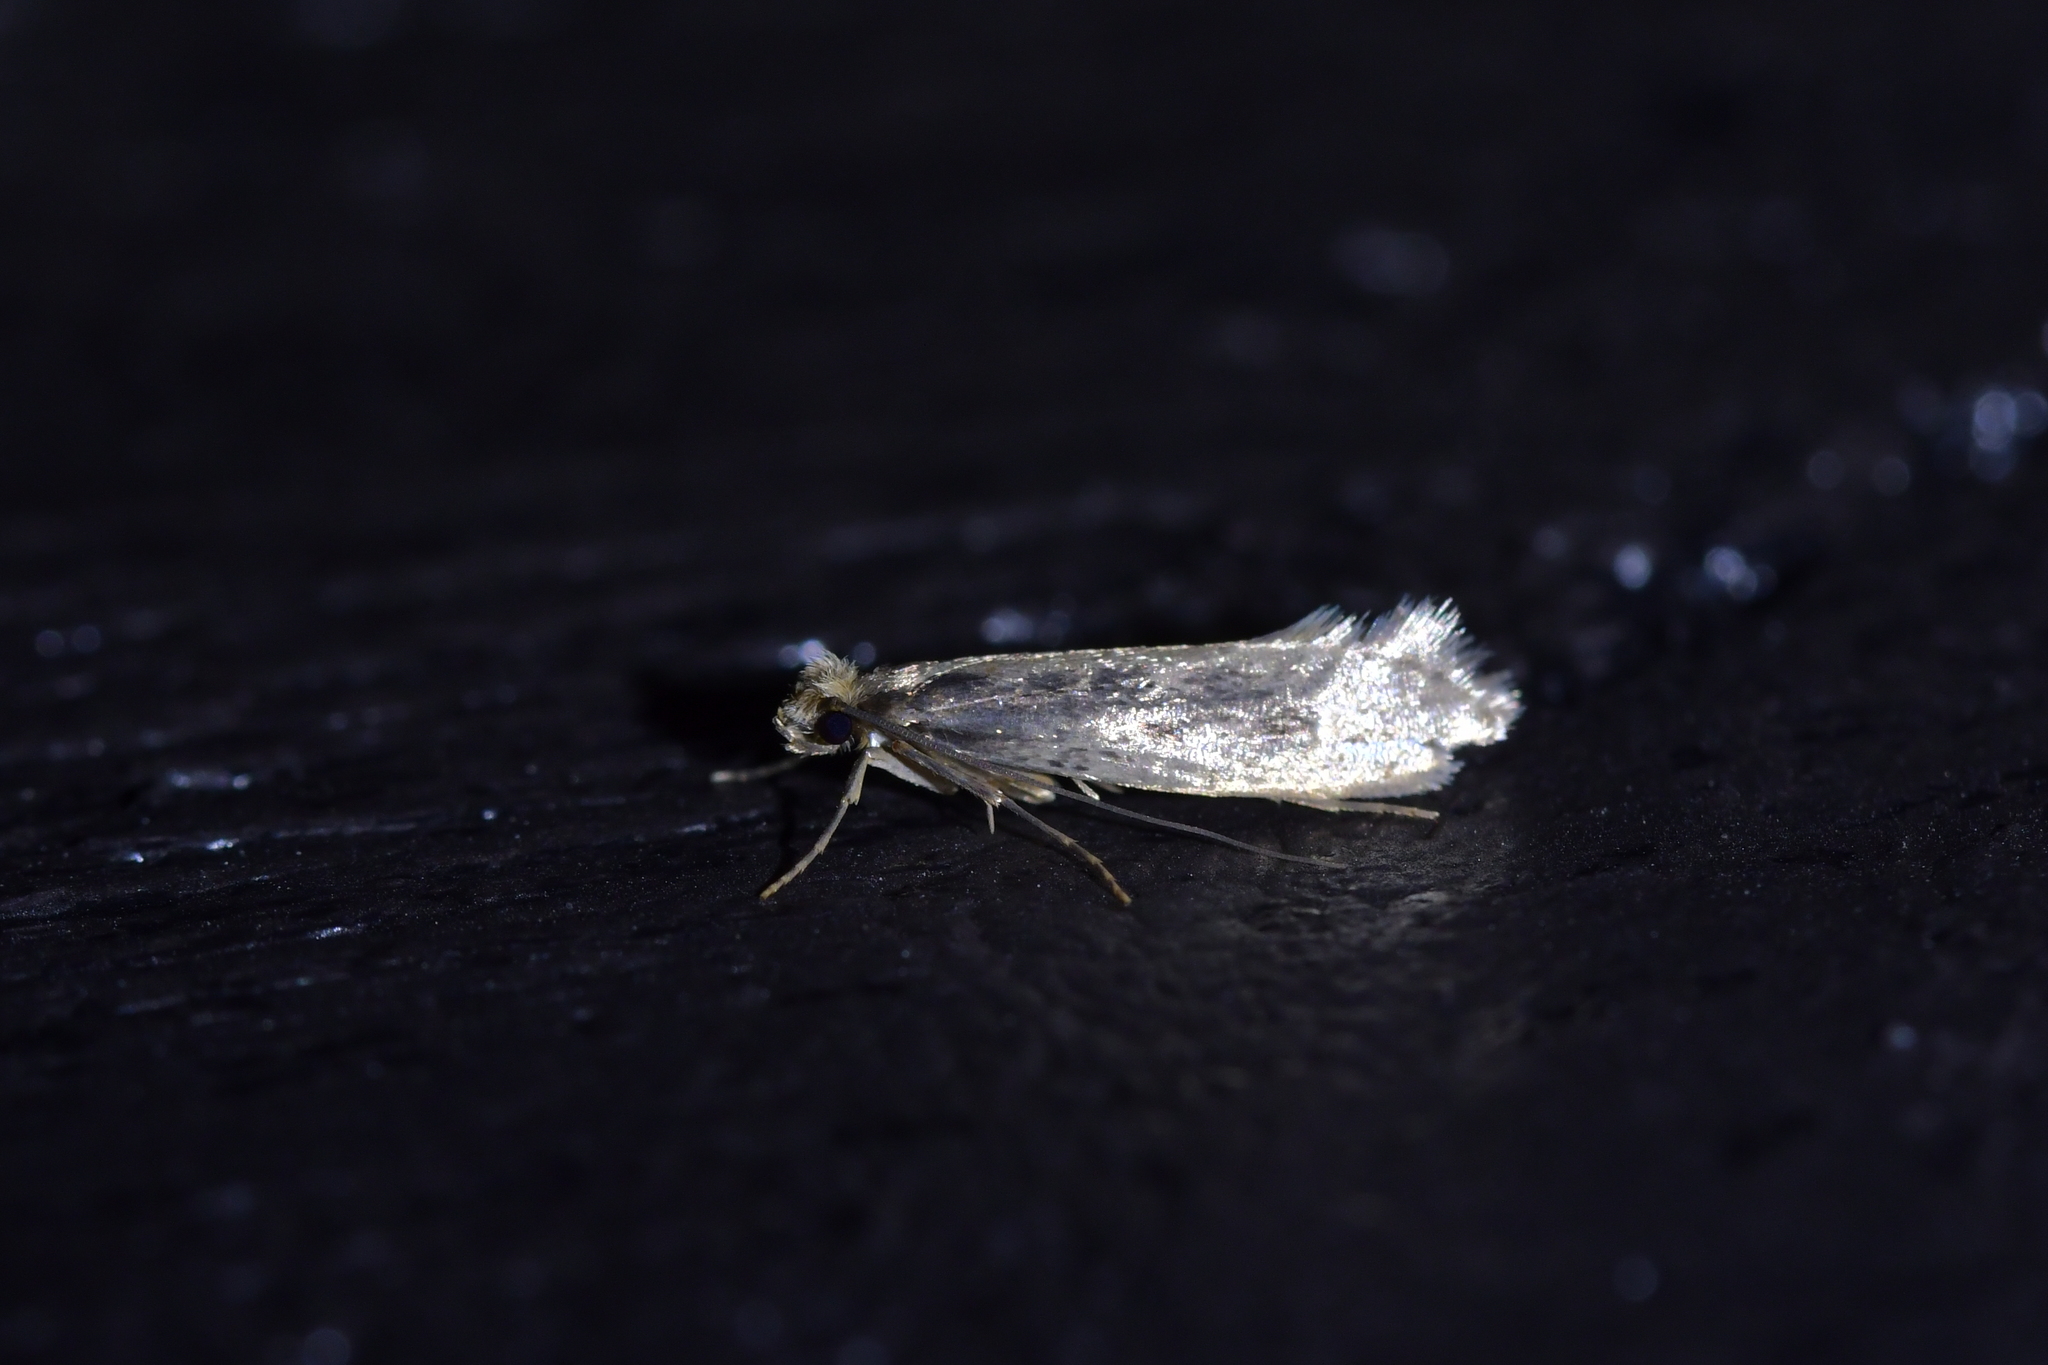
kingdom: Animalia
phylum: Arthropoda
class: Insecta
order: Lepidoptera
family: Tineidae
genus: Tinea
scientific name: Tinea pallescentella
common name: Large pale clothes moth
